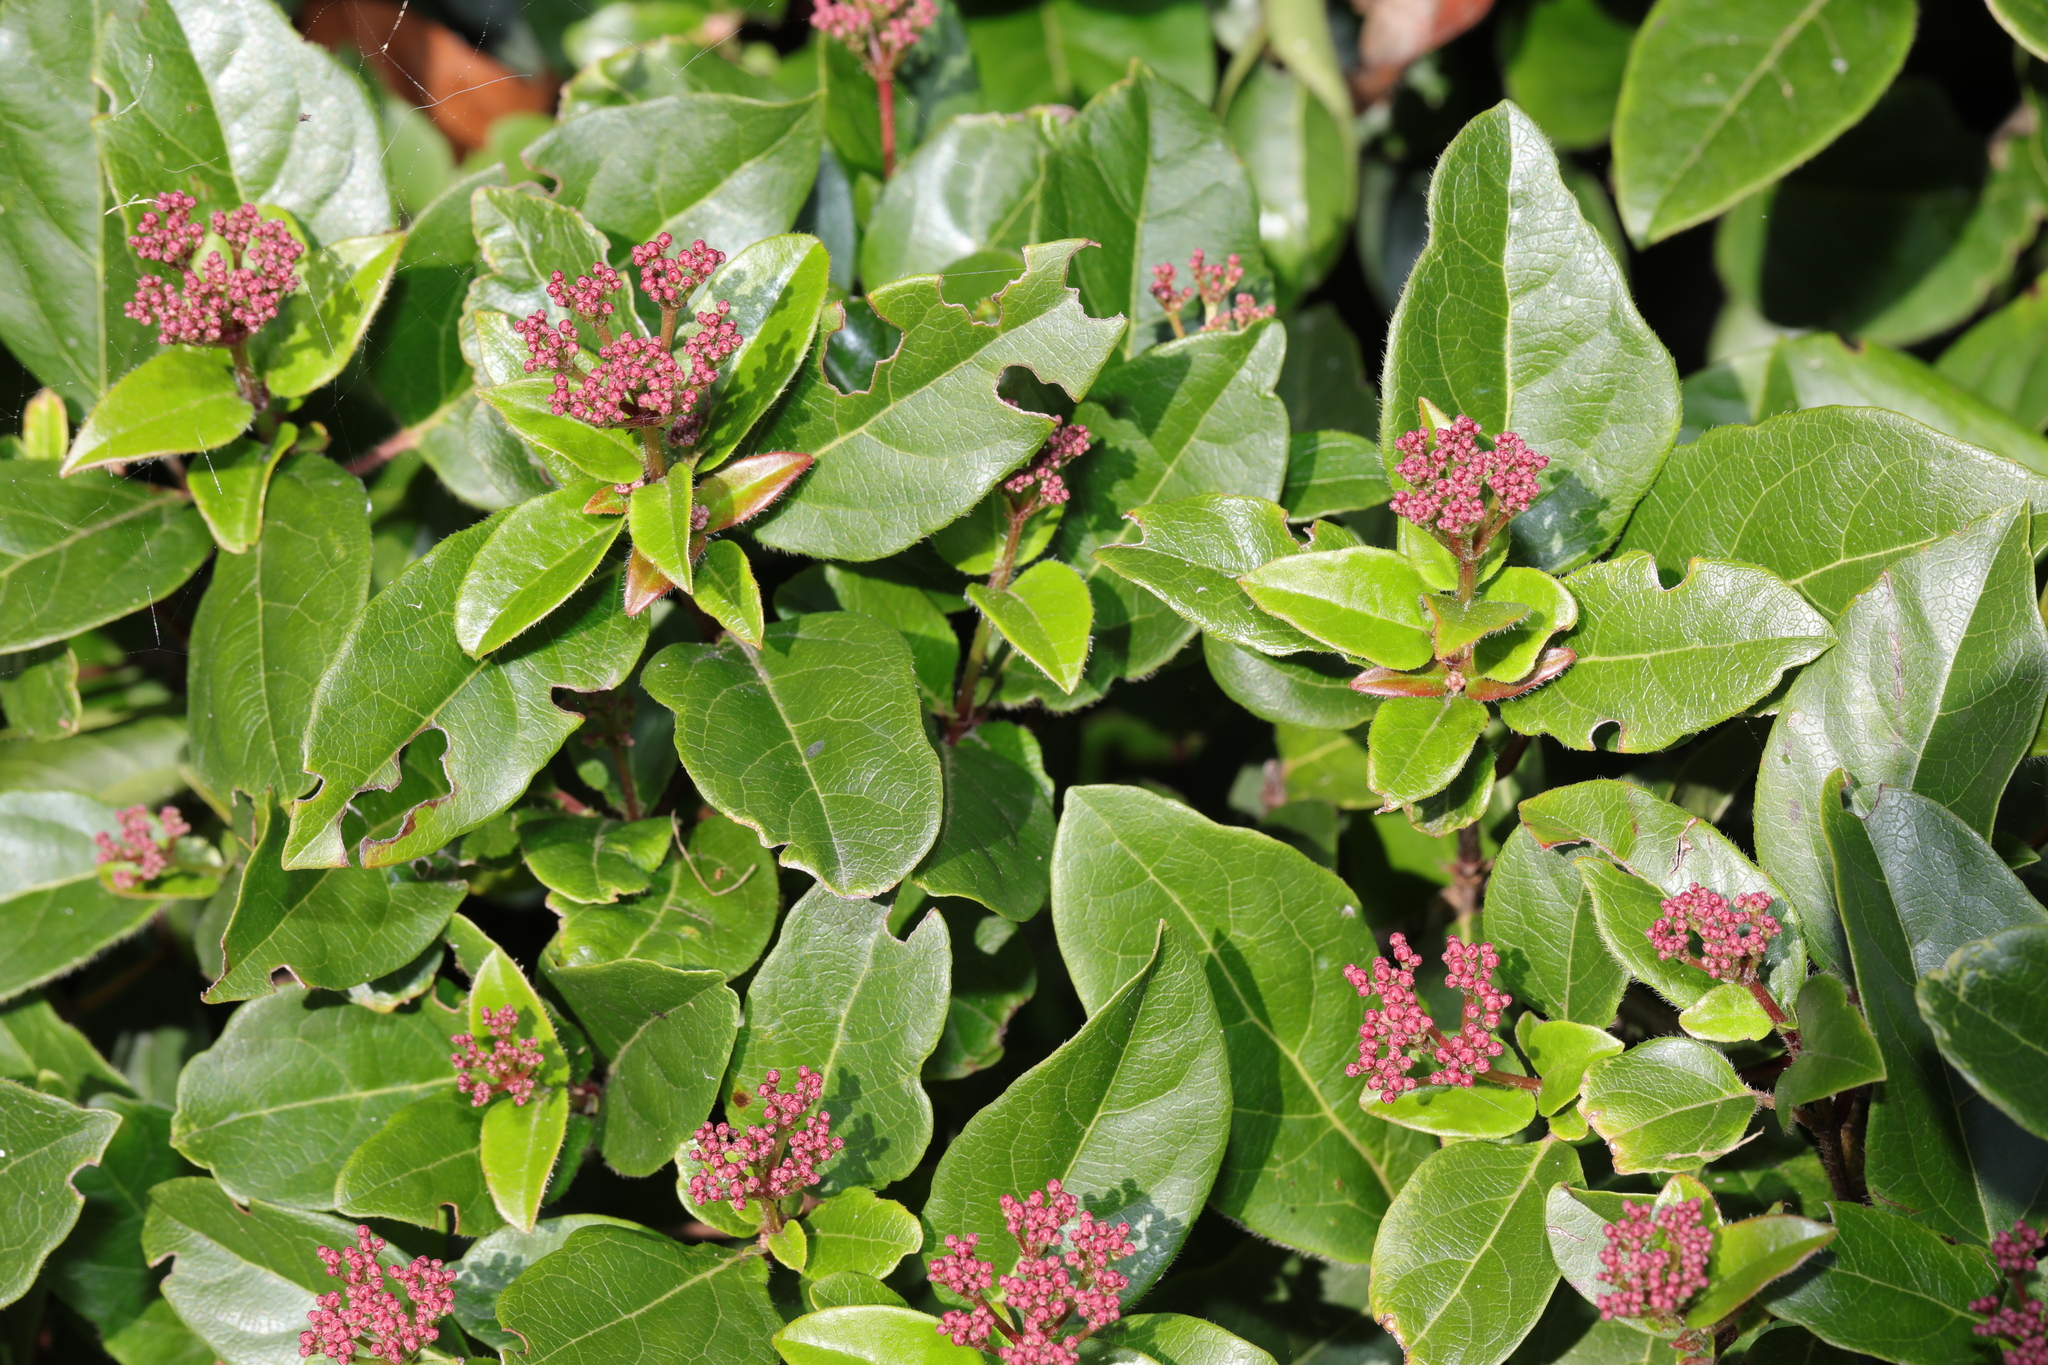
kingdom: Plantae
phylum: Tracheophyta
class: Magnoliopsida
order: Dipsacales
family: Viburnaceae
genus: Viburnum
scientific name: Viburnum tinus
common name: Laurustinus
